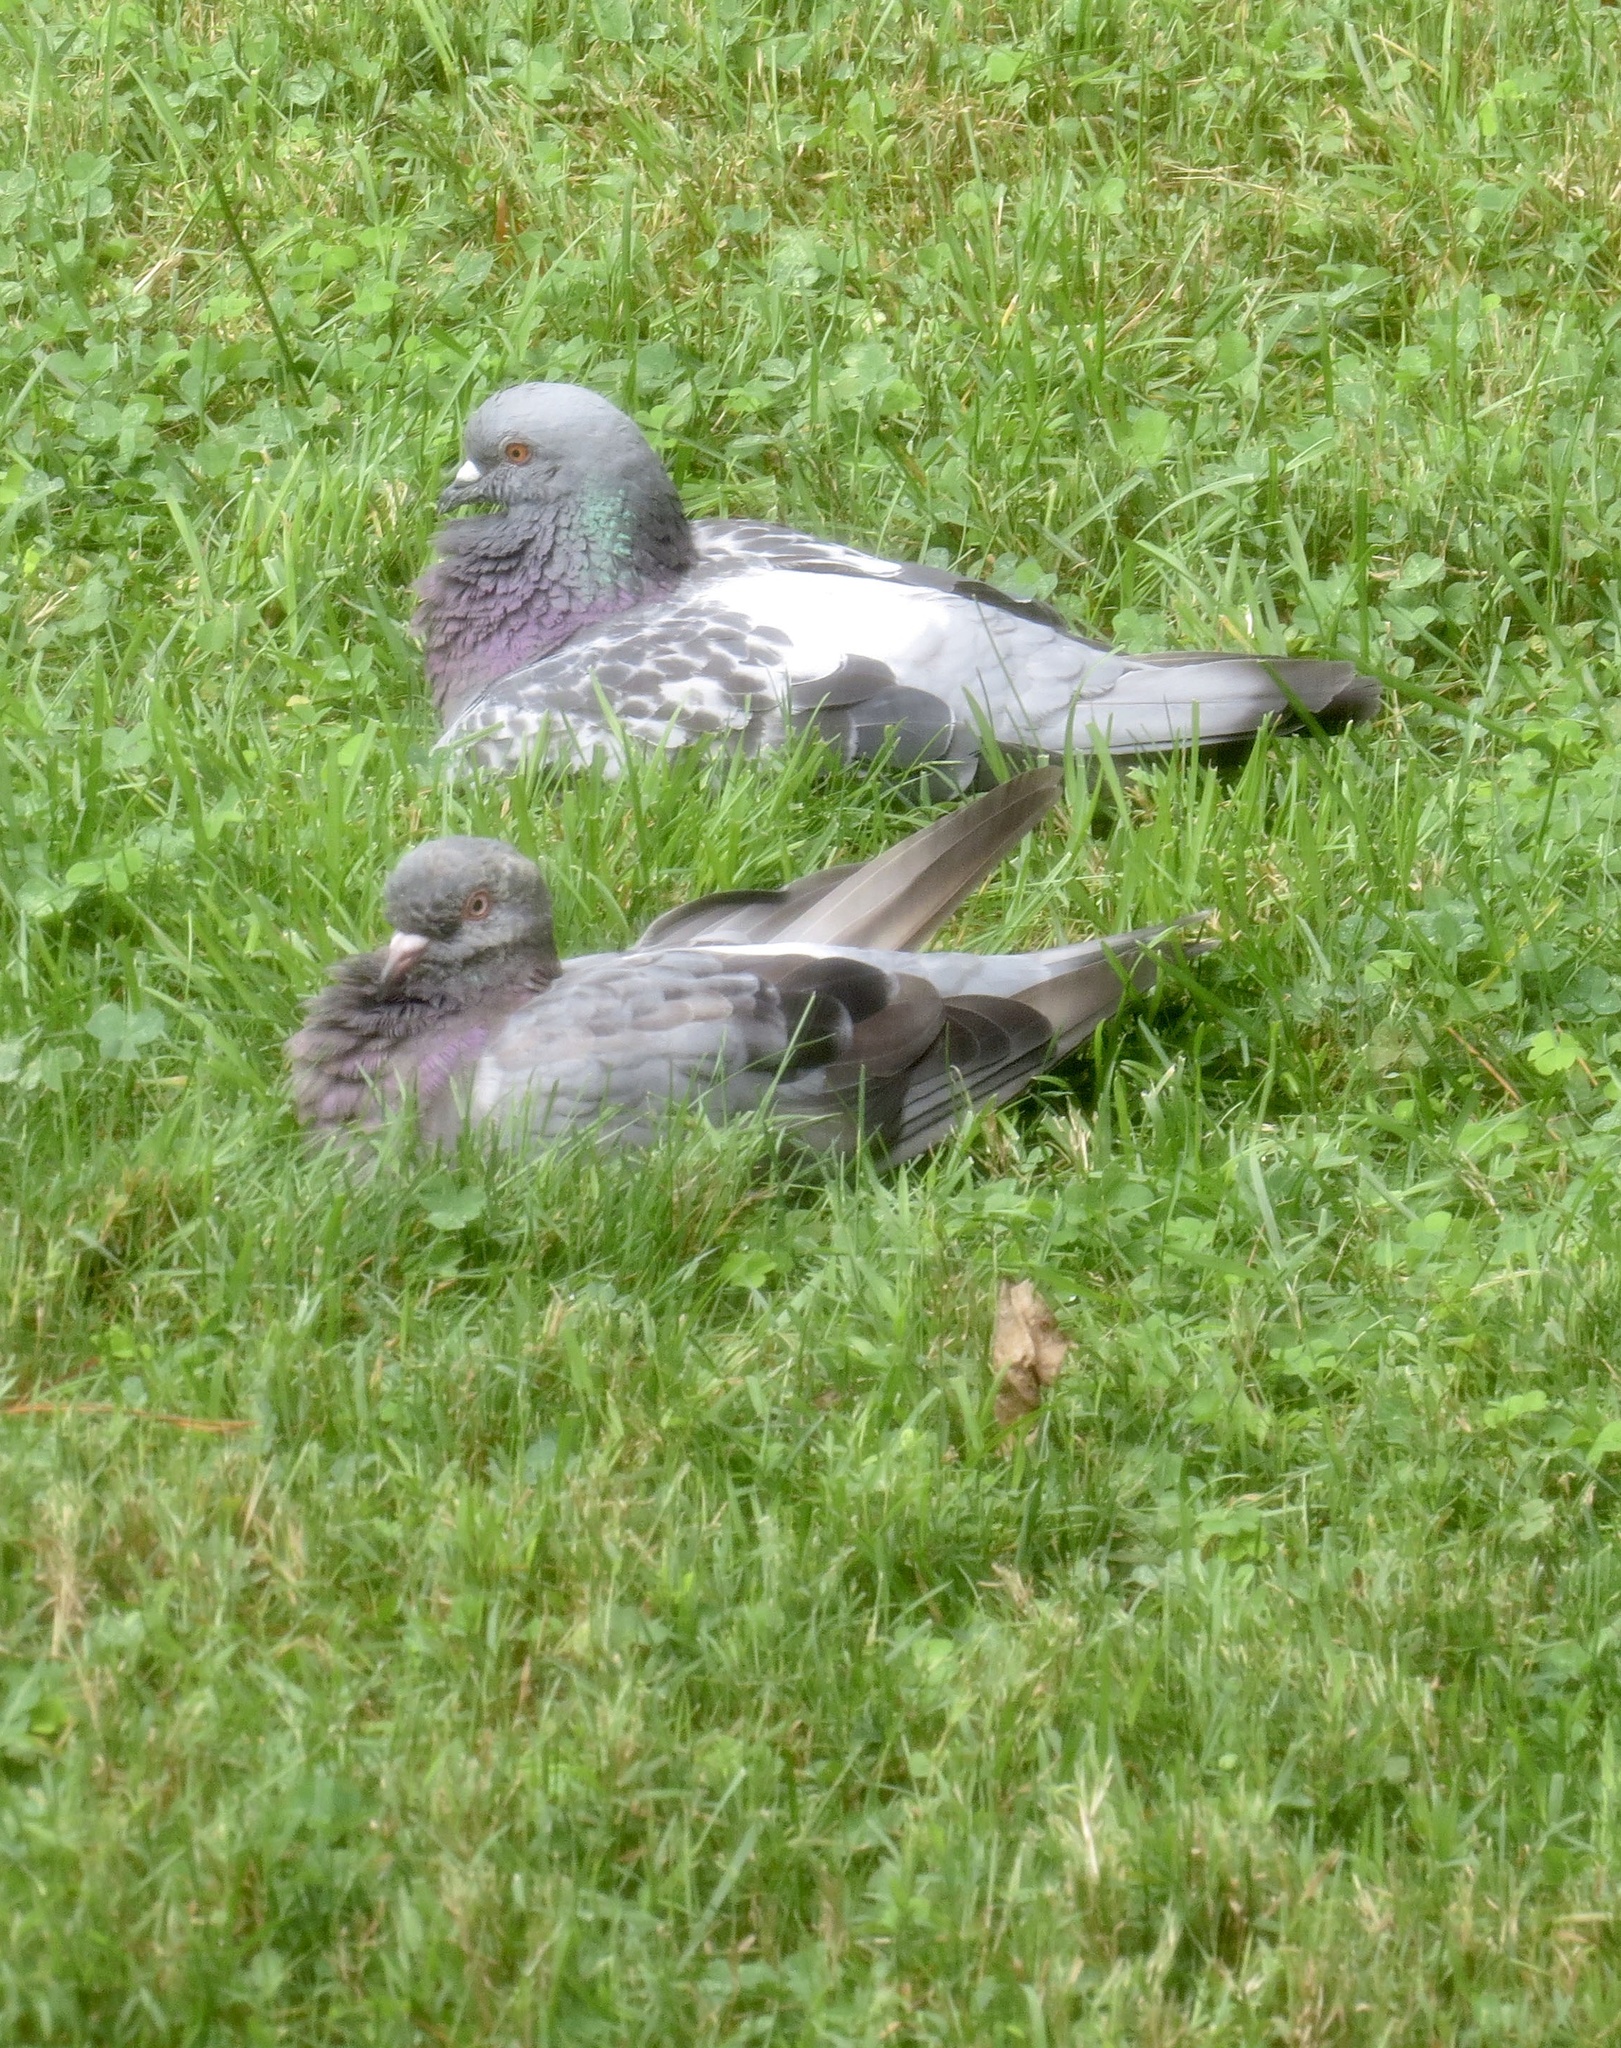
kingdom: Animalia
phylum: Chordata
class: Aves
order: Columbiformes
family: Columbidae
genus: Columba
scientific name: Columba livia
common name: Rock pigeon
